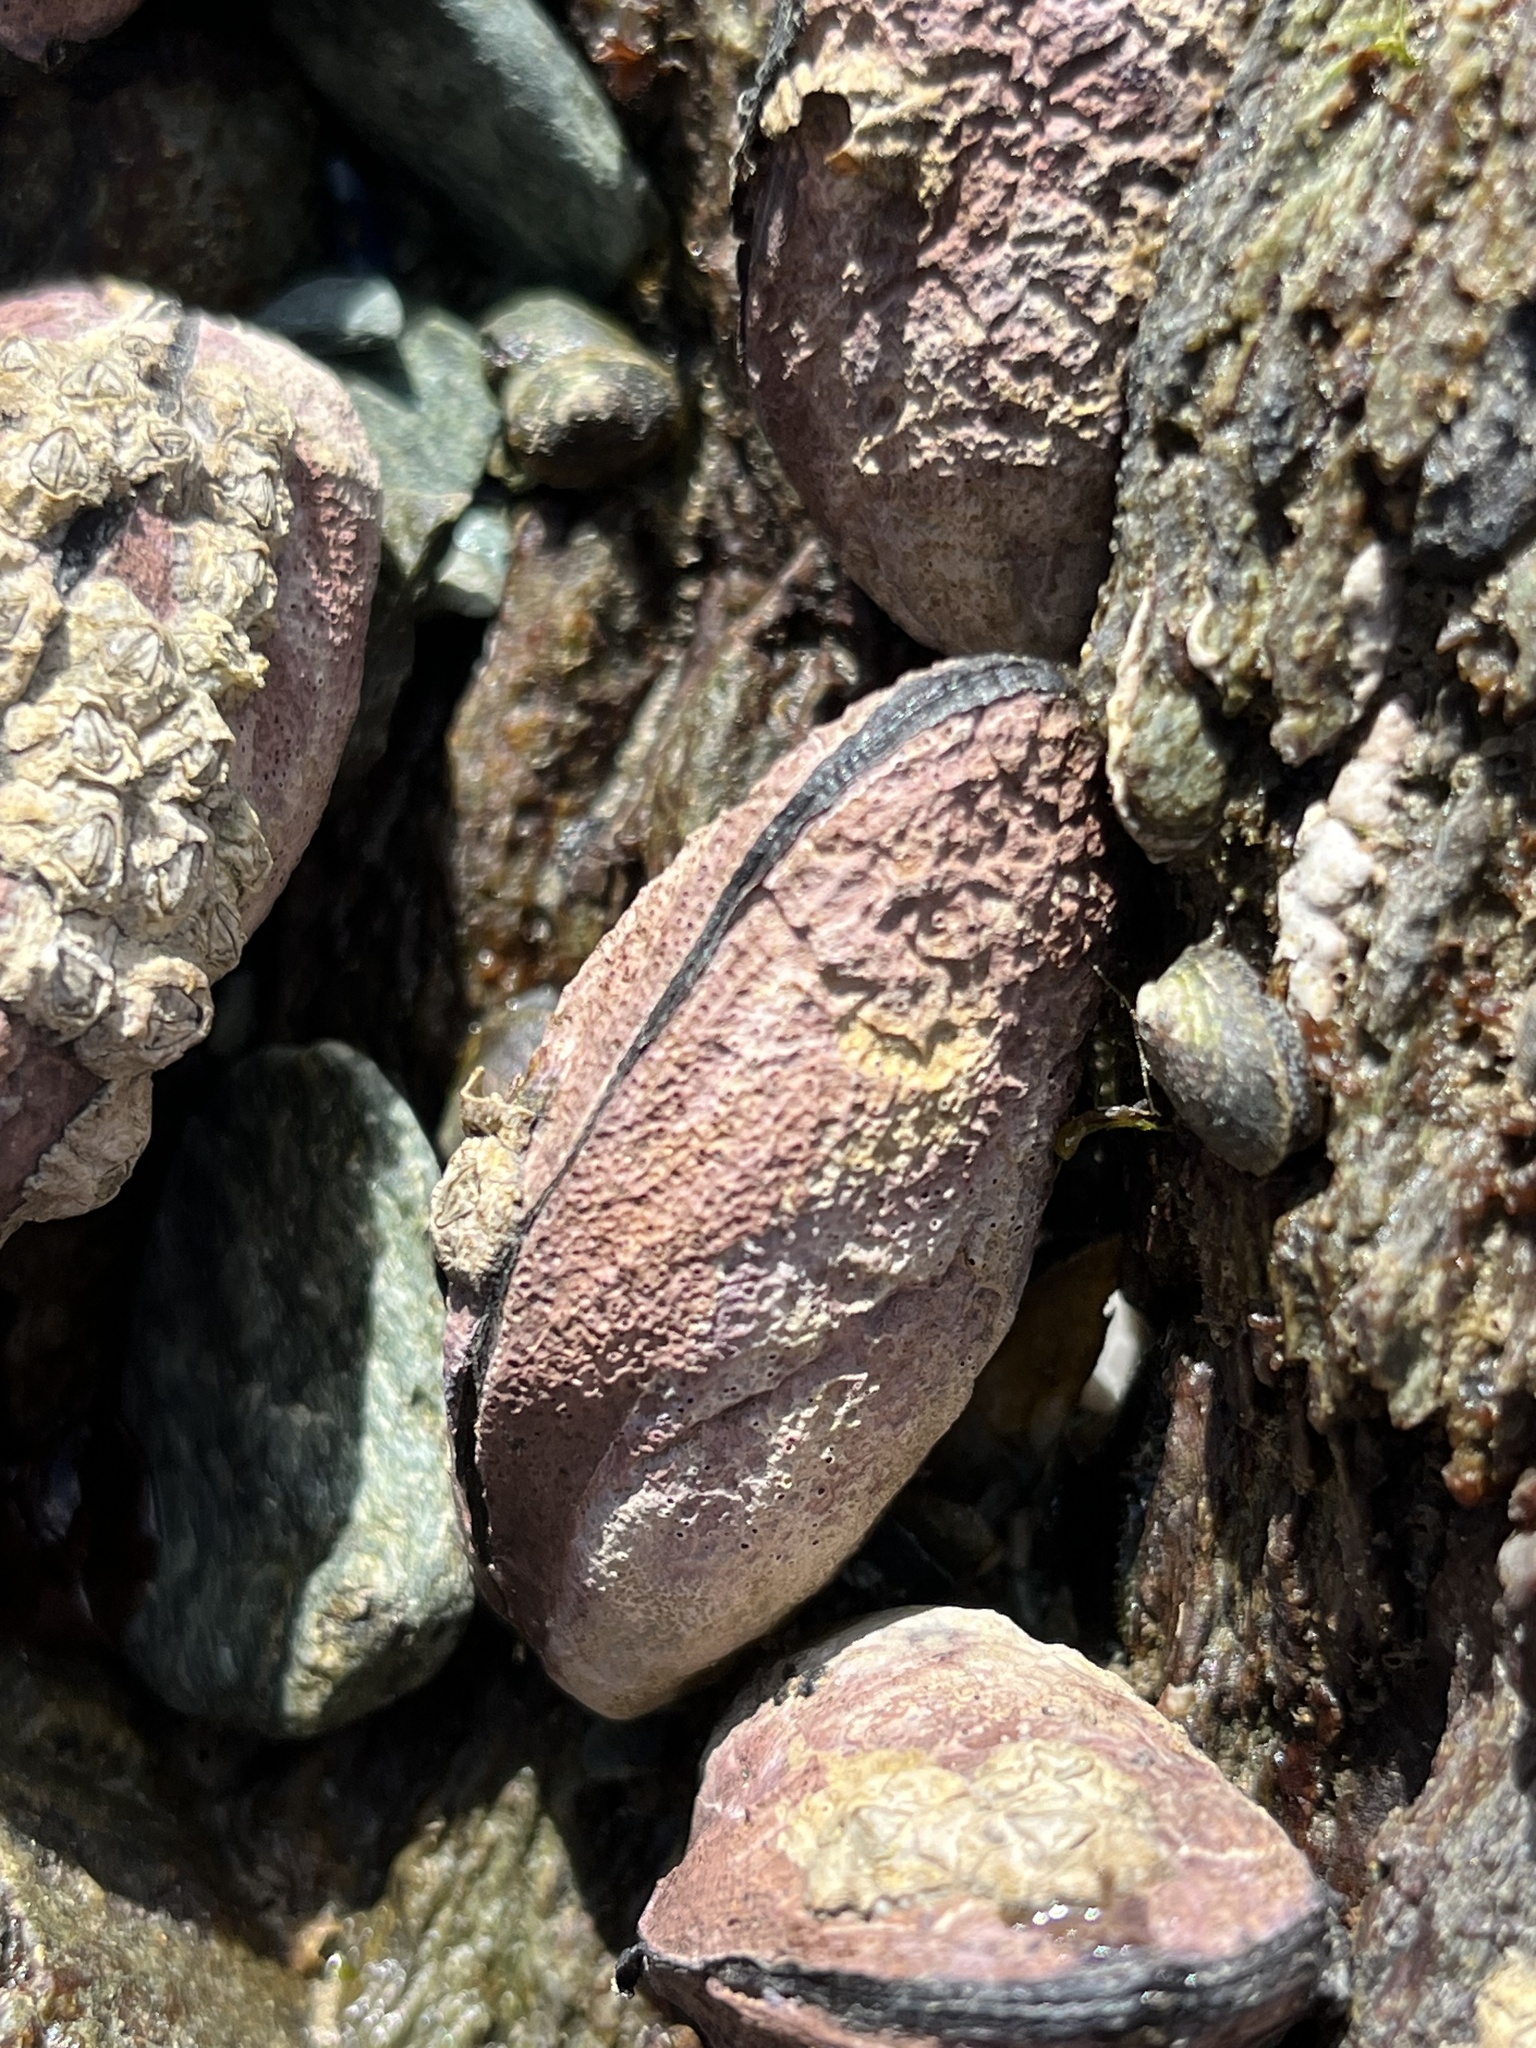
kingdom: Animalia
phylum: Mollusca
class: Bivalvia
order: Mytilida
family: Mytilidae
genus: Perumytilus
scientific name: Perumytilus purpuratus
